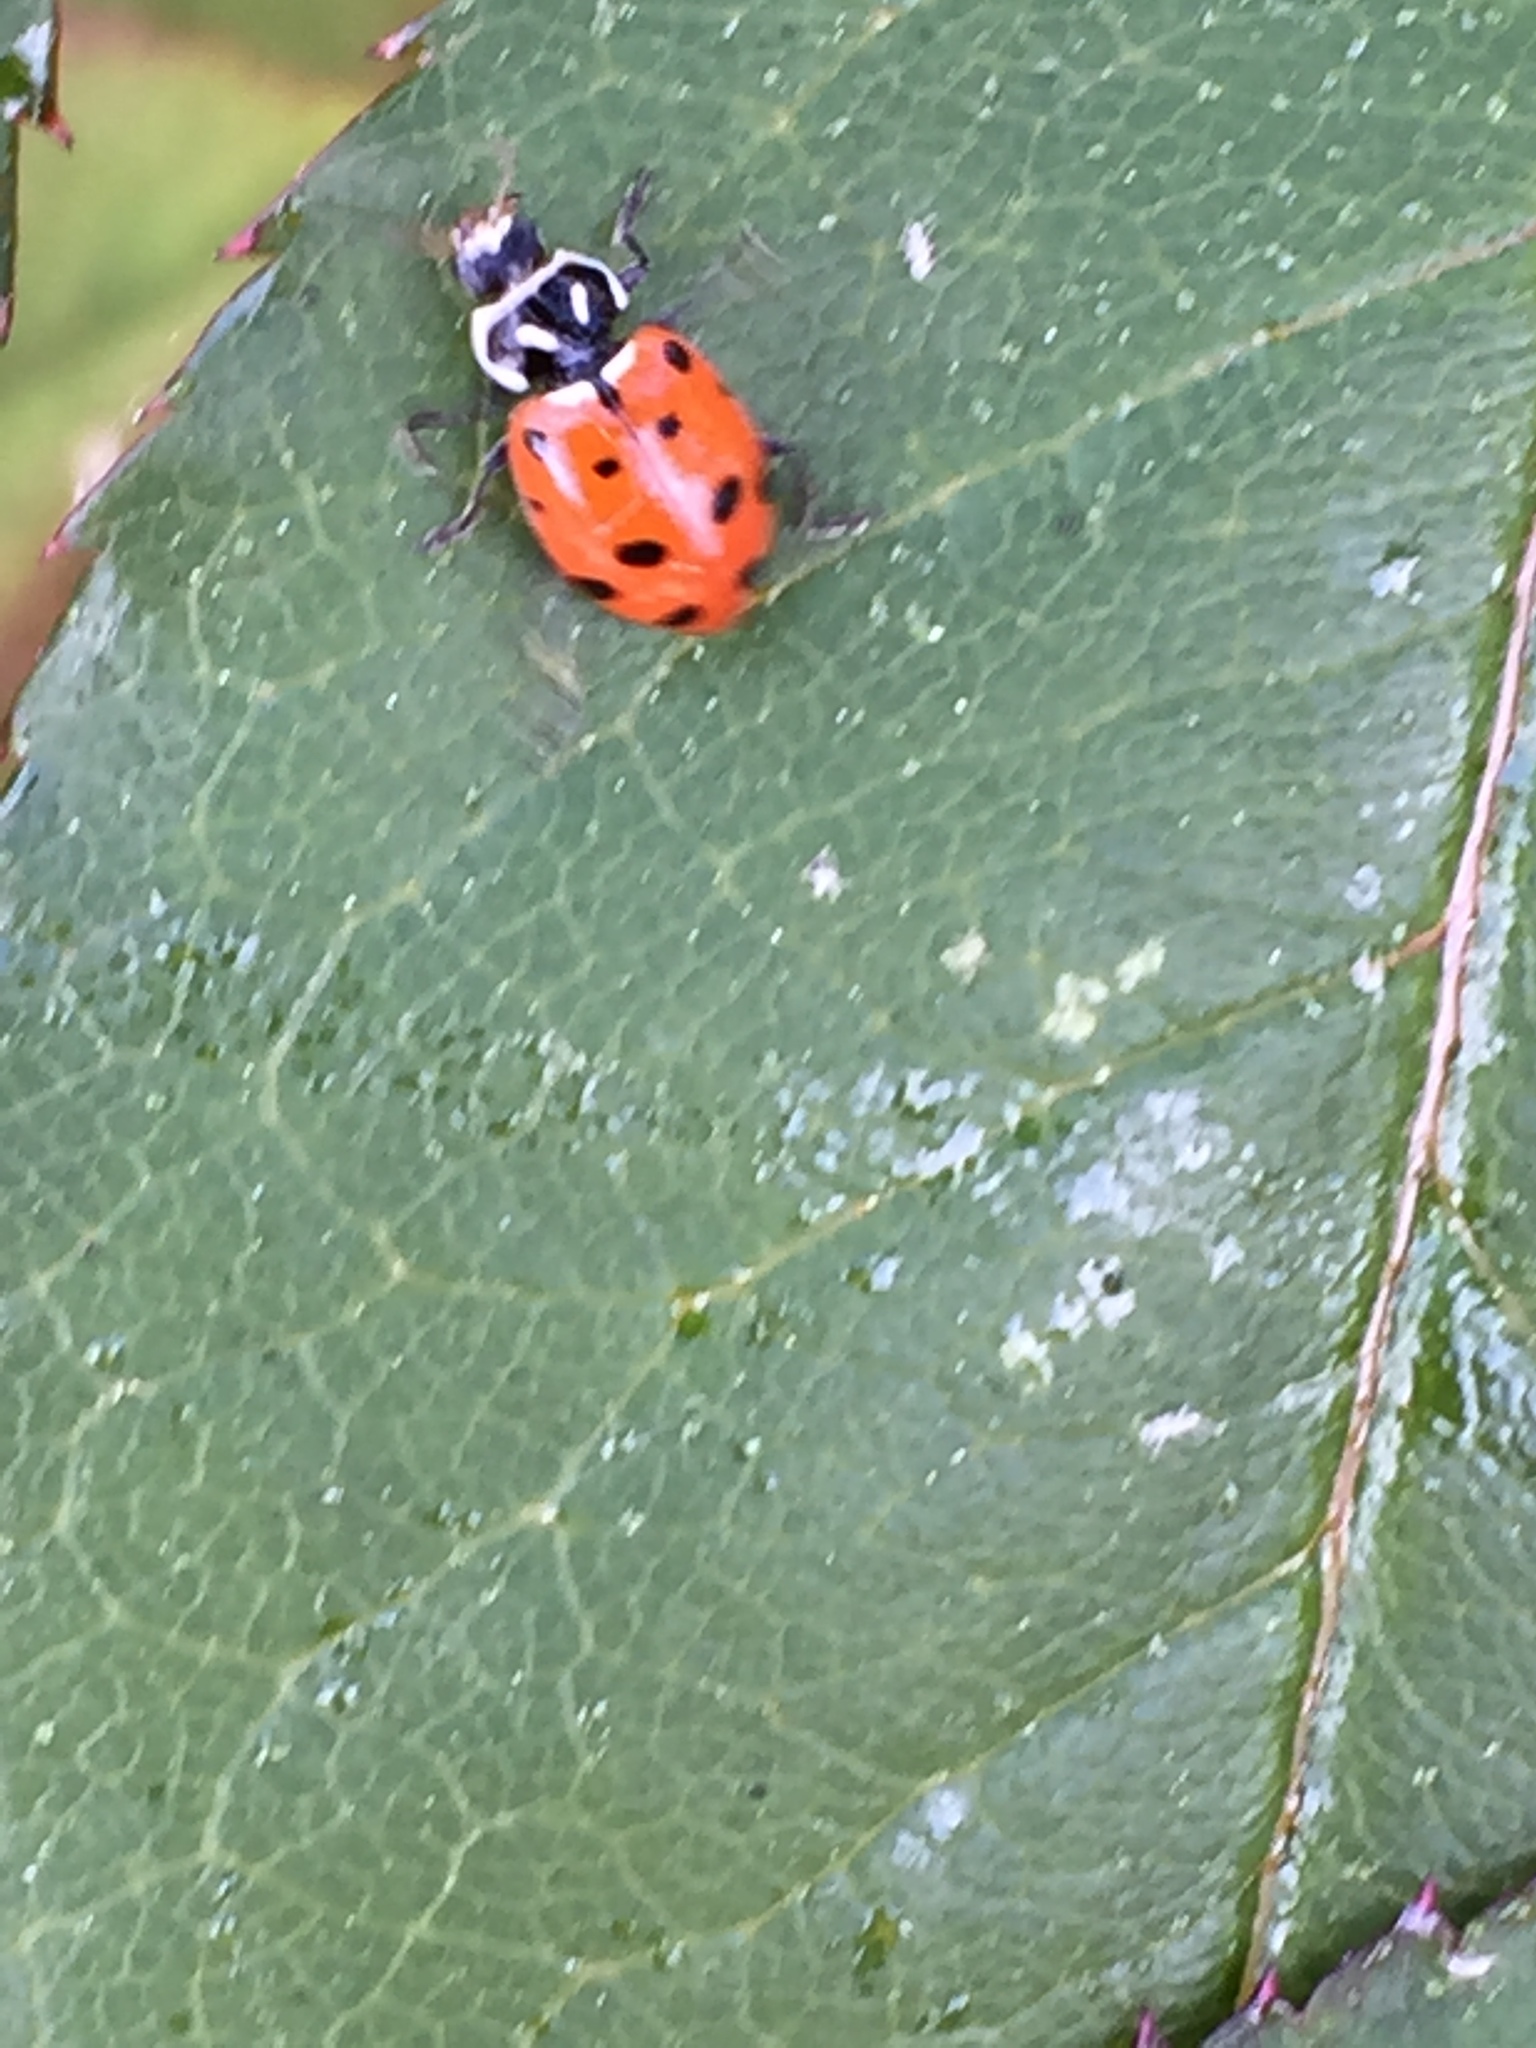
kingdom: Animalia
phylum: Arthropoda
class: Insecta
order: Coleoptera
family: Coccinellidae
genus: Hippodamia
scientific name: Hippodamia convergens
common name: Convergent lady beetle
